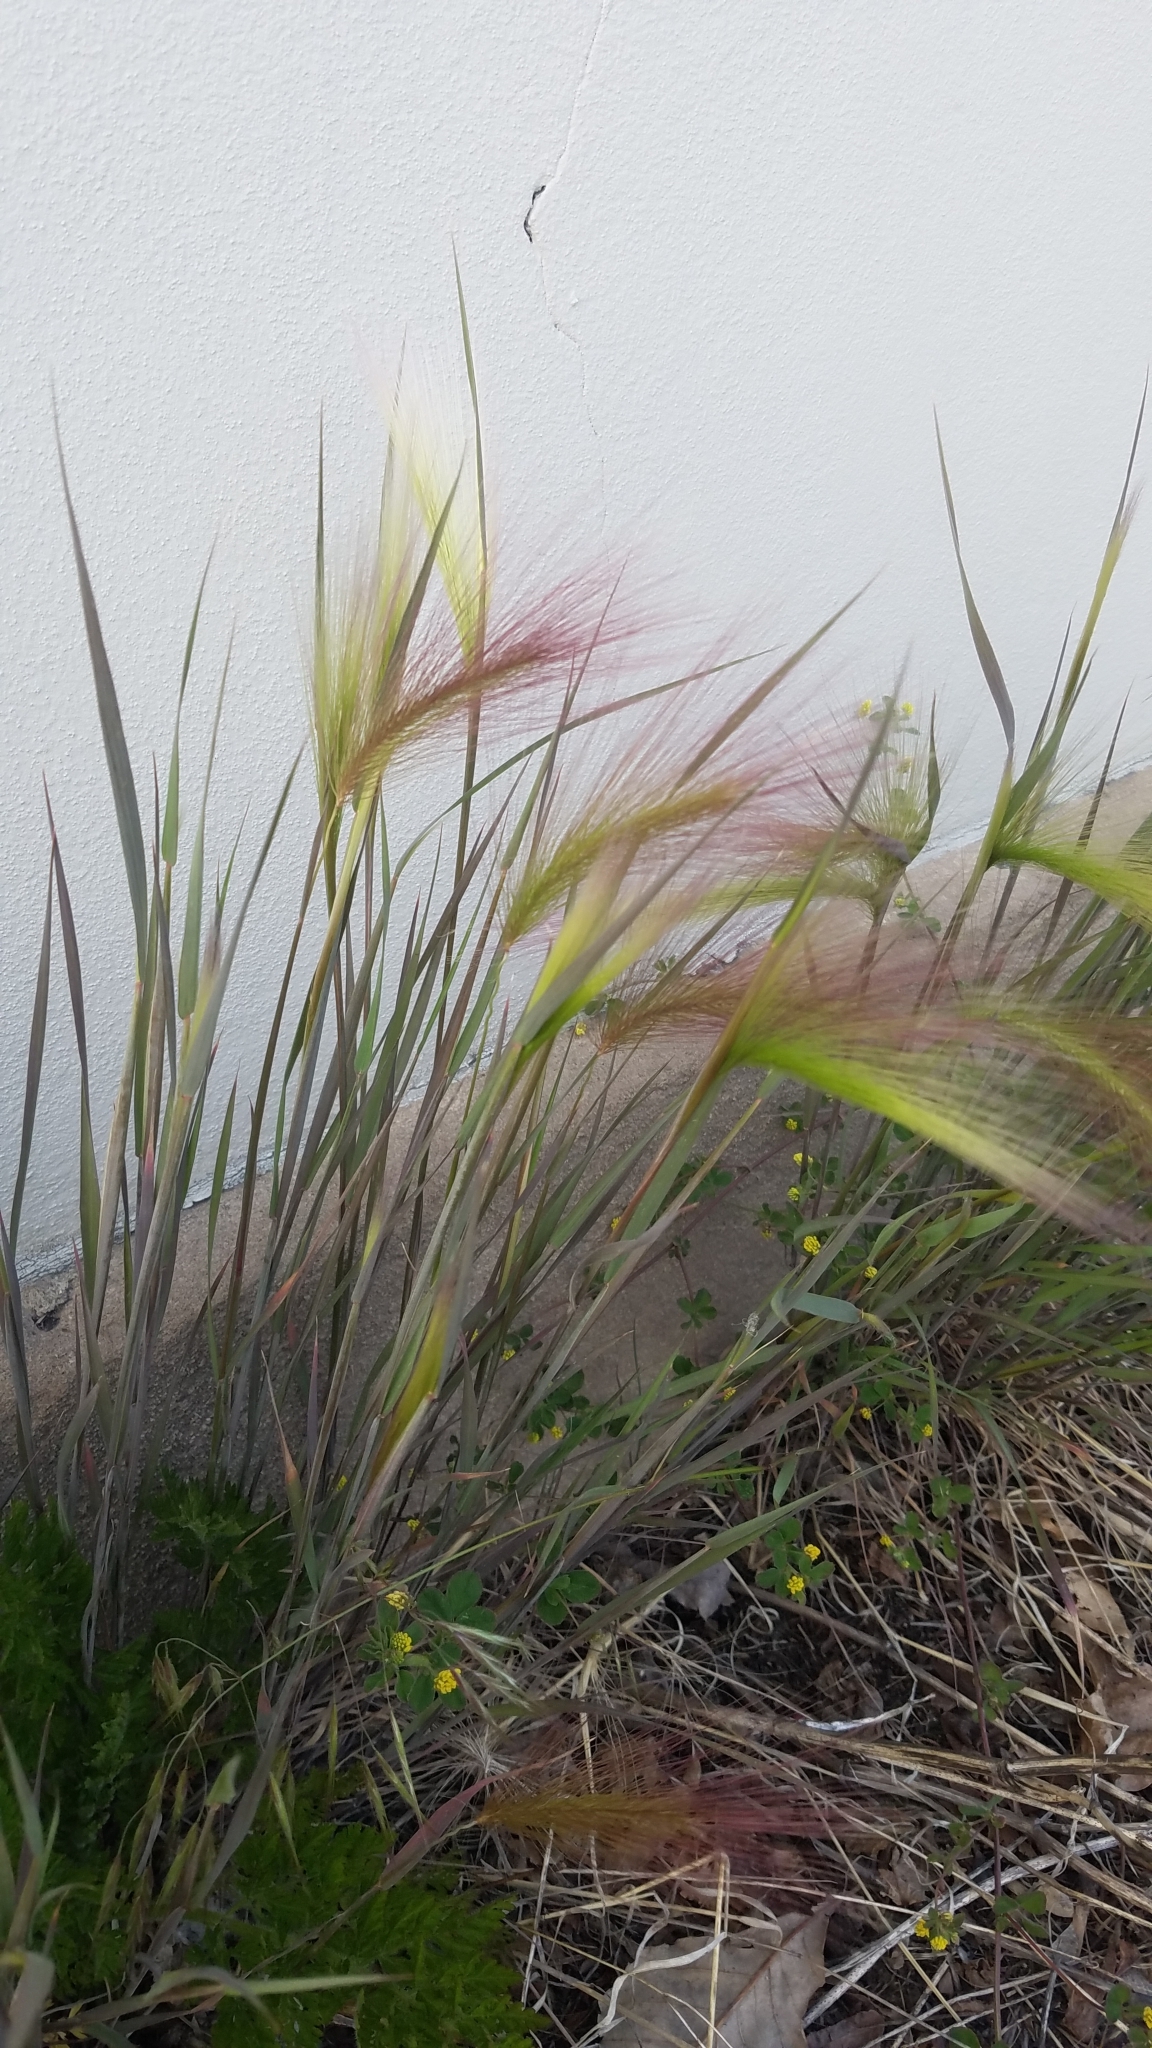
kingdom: Plantae
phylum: Tracheophyta
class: Liliopsida
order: Poales
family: Poaceae
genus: Hordeum
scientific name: Hordeum jubatum
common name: Foxtail barley
